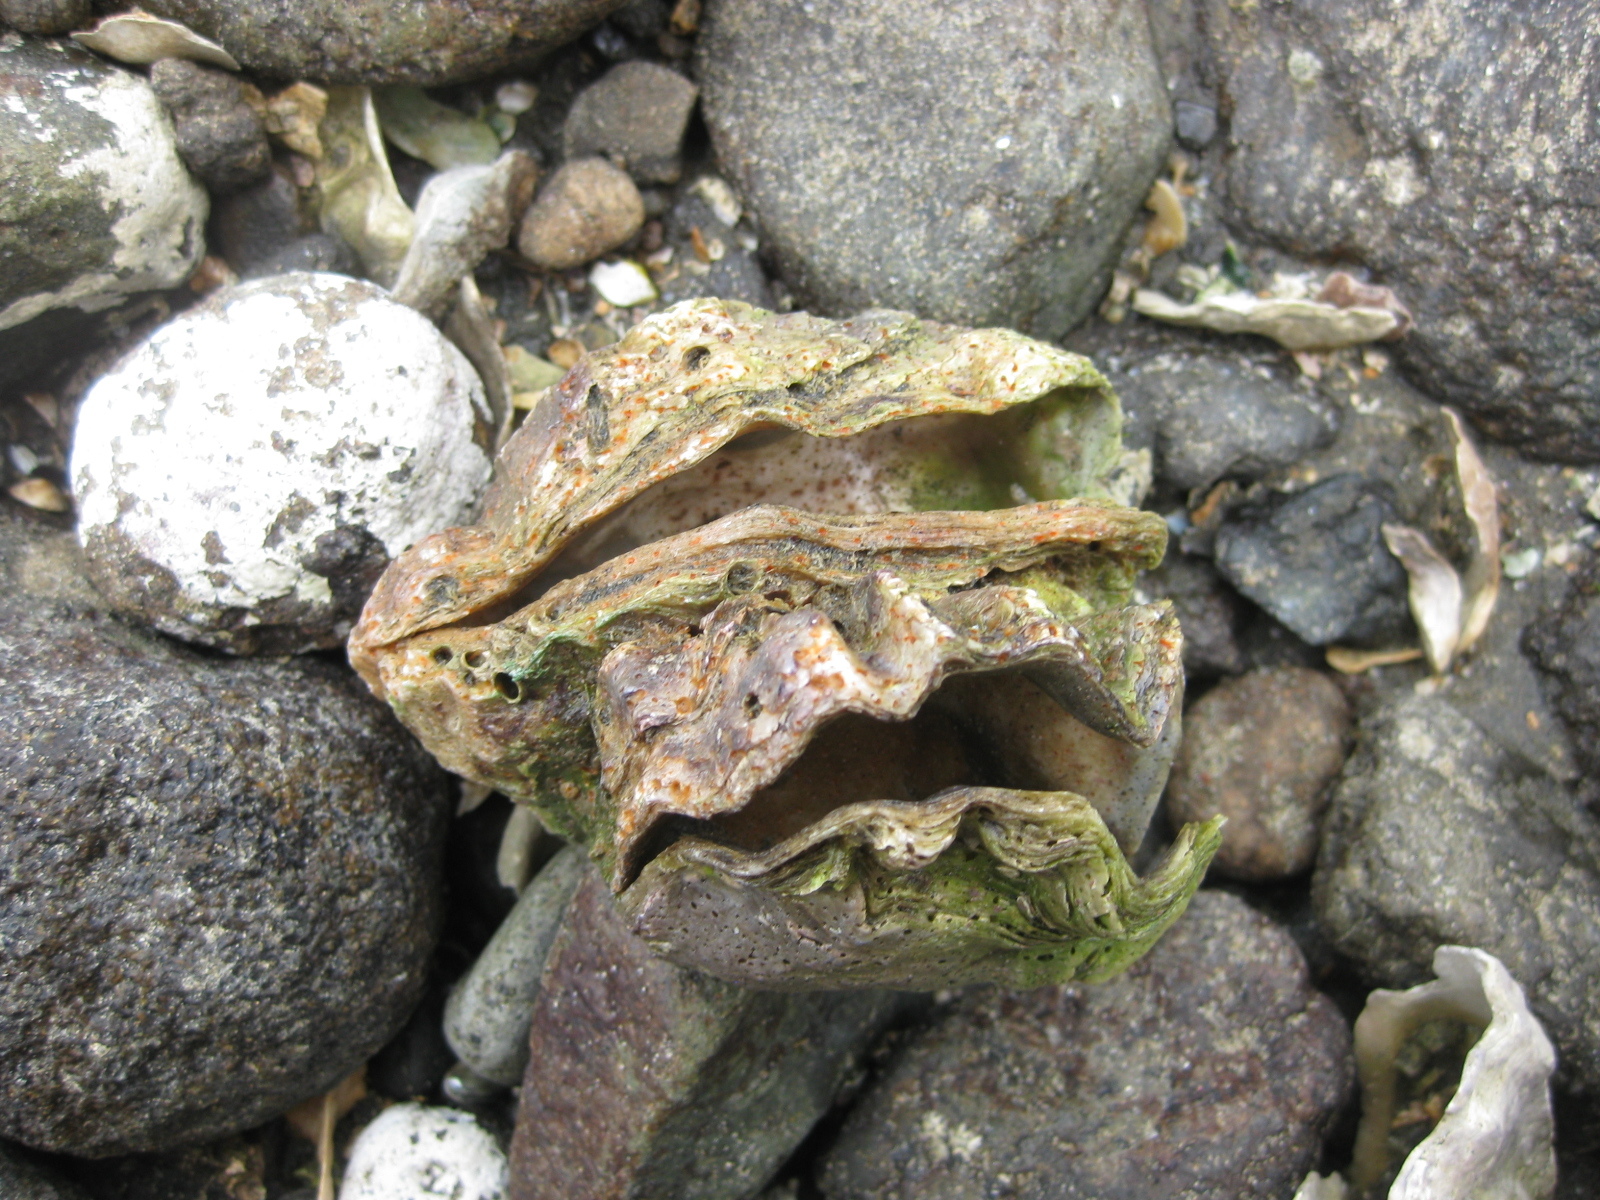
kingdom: Animalia
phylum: Mollusca
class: Bivalvia
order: Ostreida
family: Ostreidae
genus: Magallana
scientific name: Magallana gigas
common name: Pacific oyster
